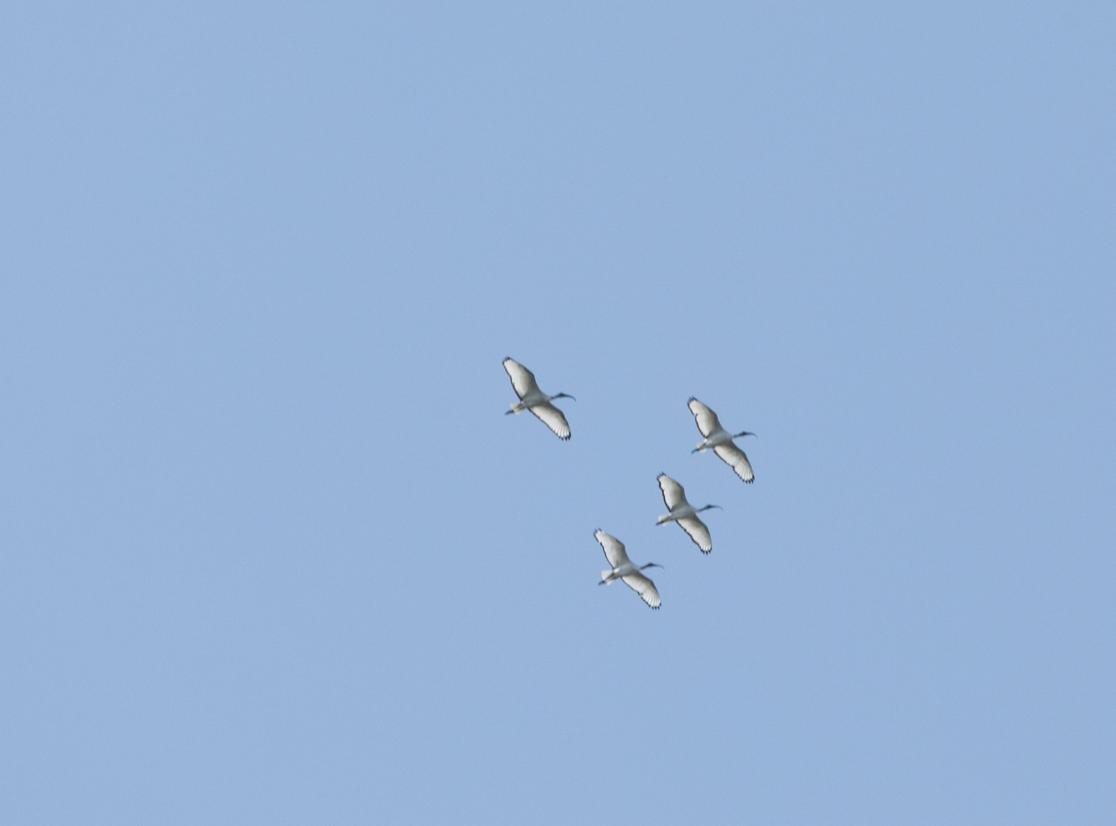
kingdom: Animalia
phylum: Chordata
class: Aves
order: Pelecaniformes
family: Threskiornithidae
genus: Threskiornis
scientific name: Threskiornis aethiopicus
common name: Sacred ibis
